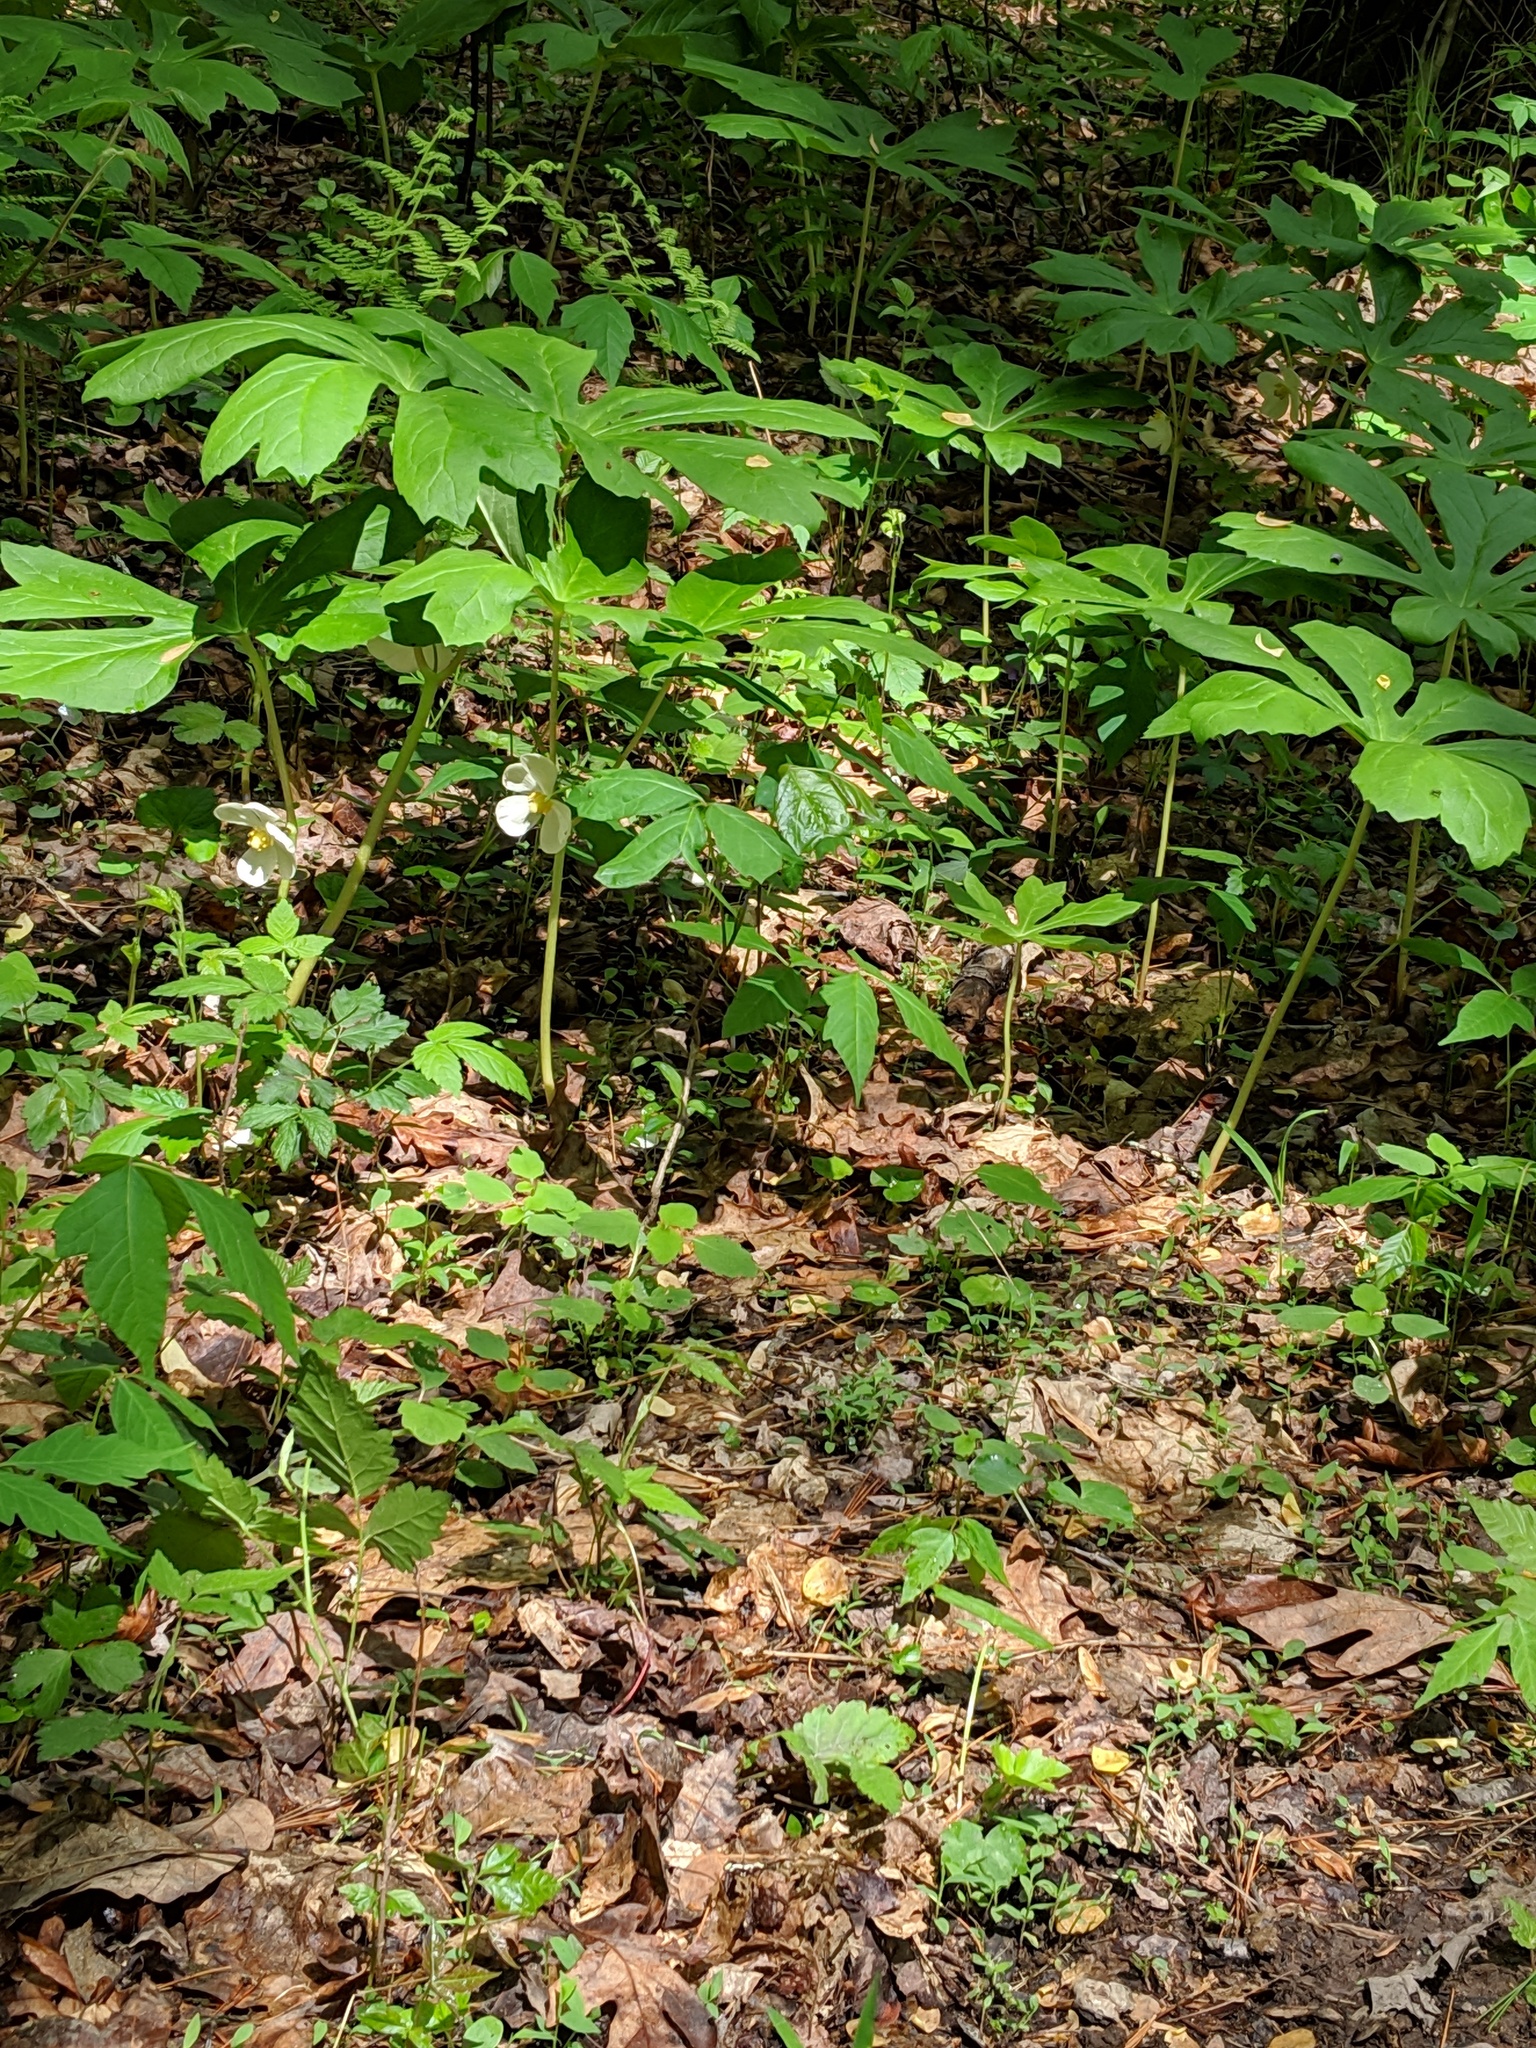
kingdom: Plantae
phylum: Tracheophyta
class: Magnoliopsida
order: Ranunculales
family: Berberidaceae
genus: Podophyllum
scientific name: Podophyllum peltatum
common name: Wild mandrake
